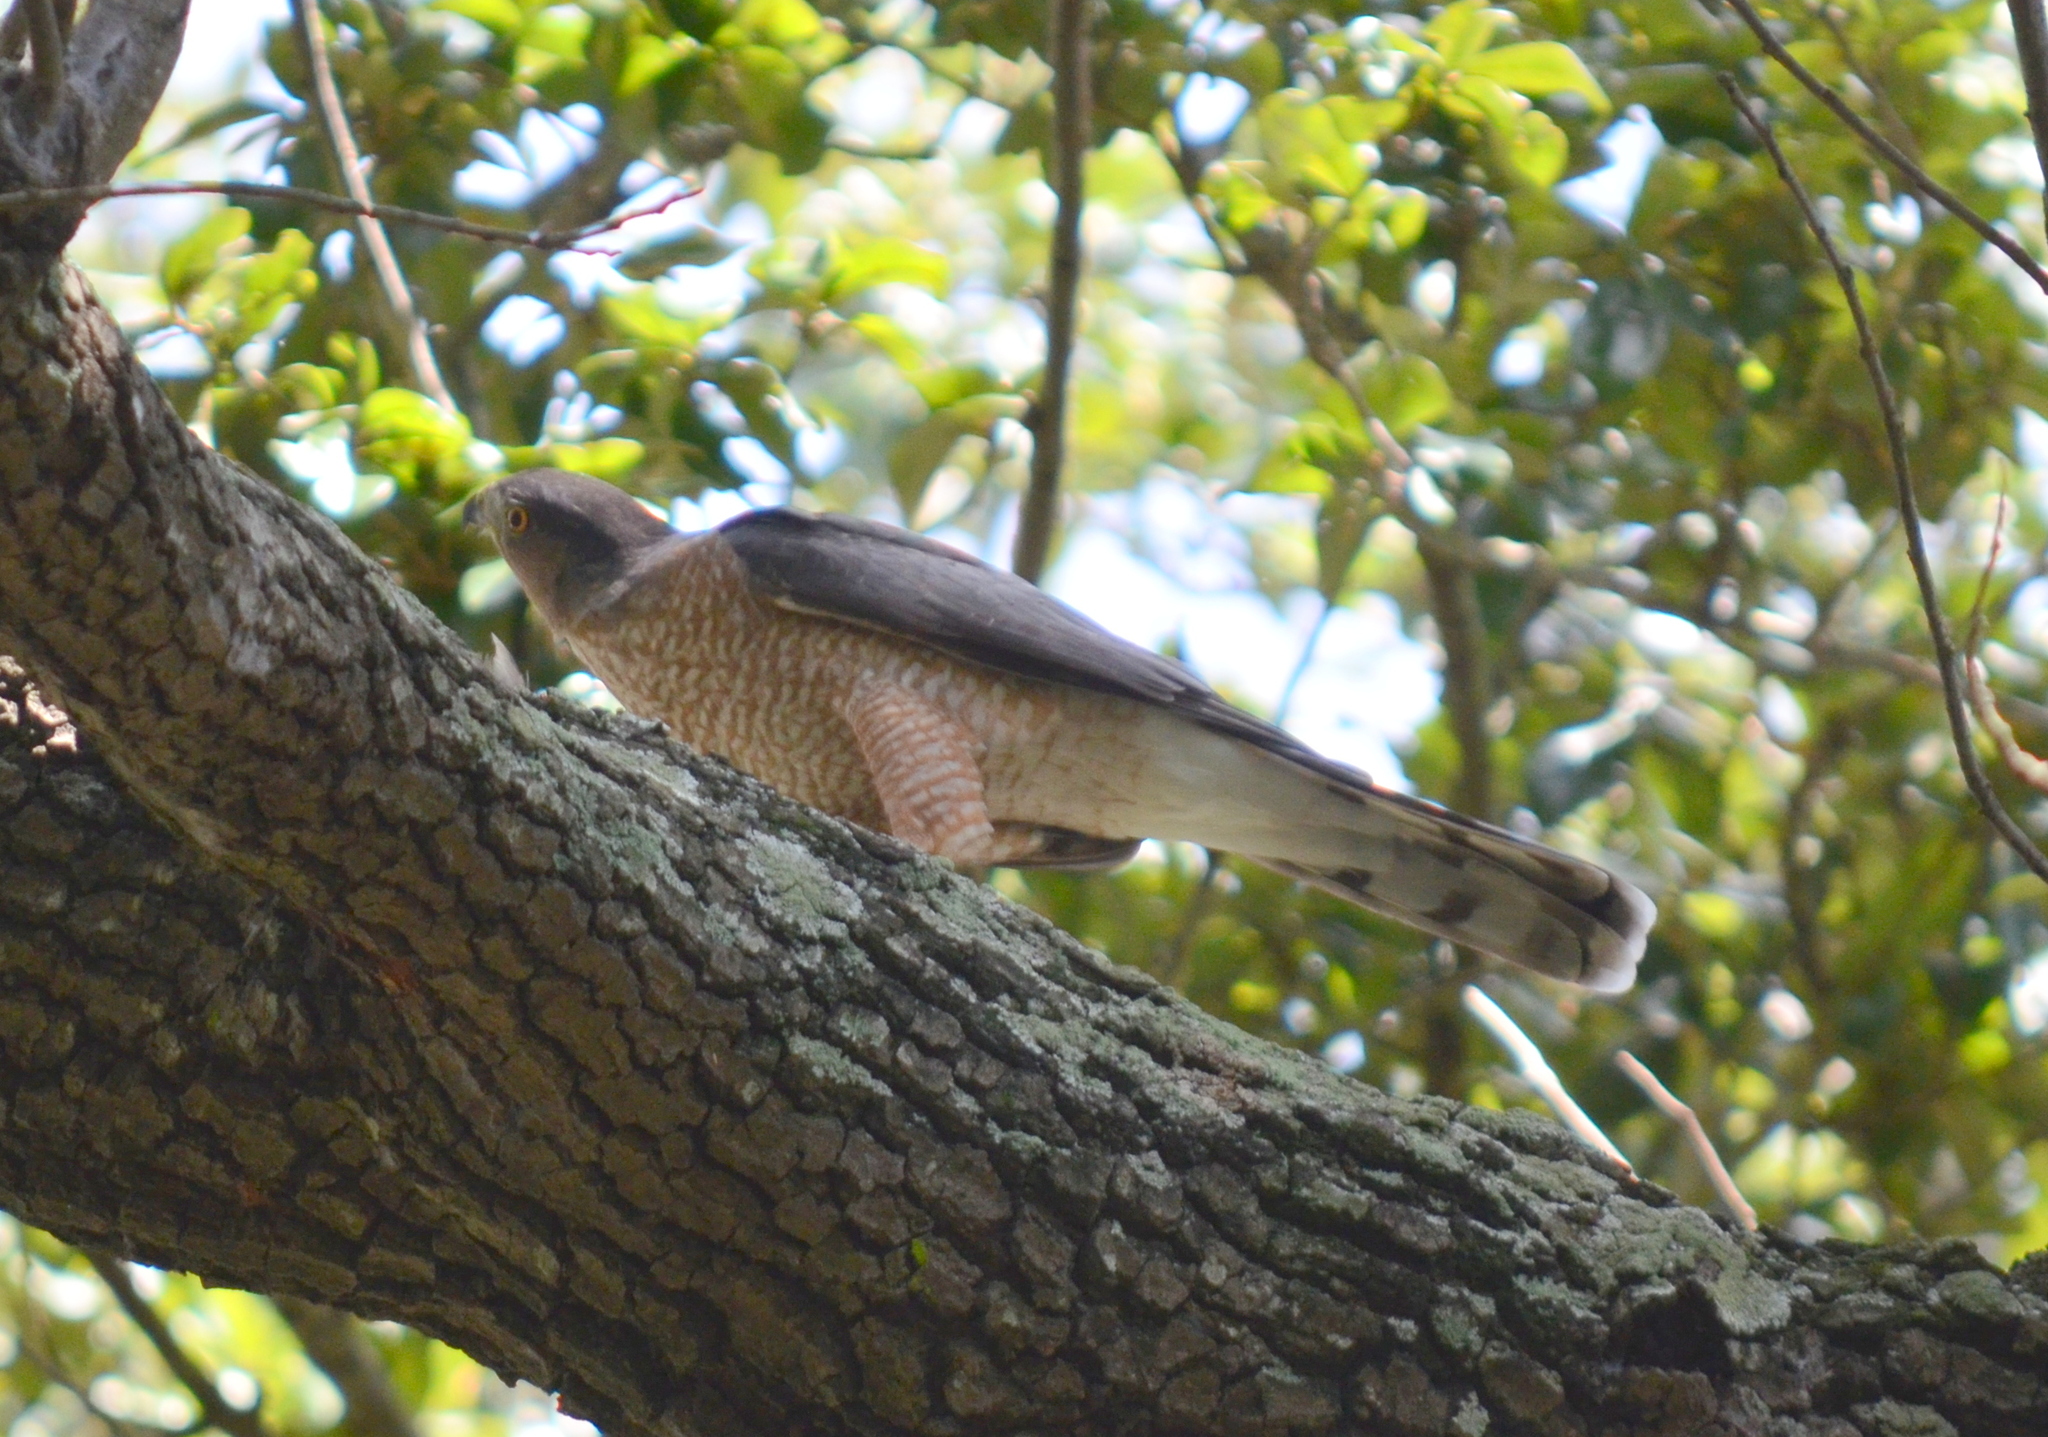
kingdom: Animalia
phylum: Chordata
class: Aves
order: Accipitriformes
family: Accipitridae
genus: Accipiter
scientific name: Accipiter cooperii
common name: Cooper's hawk
